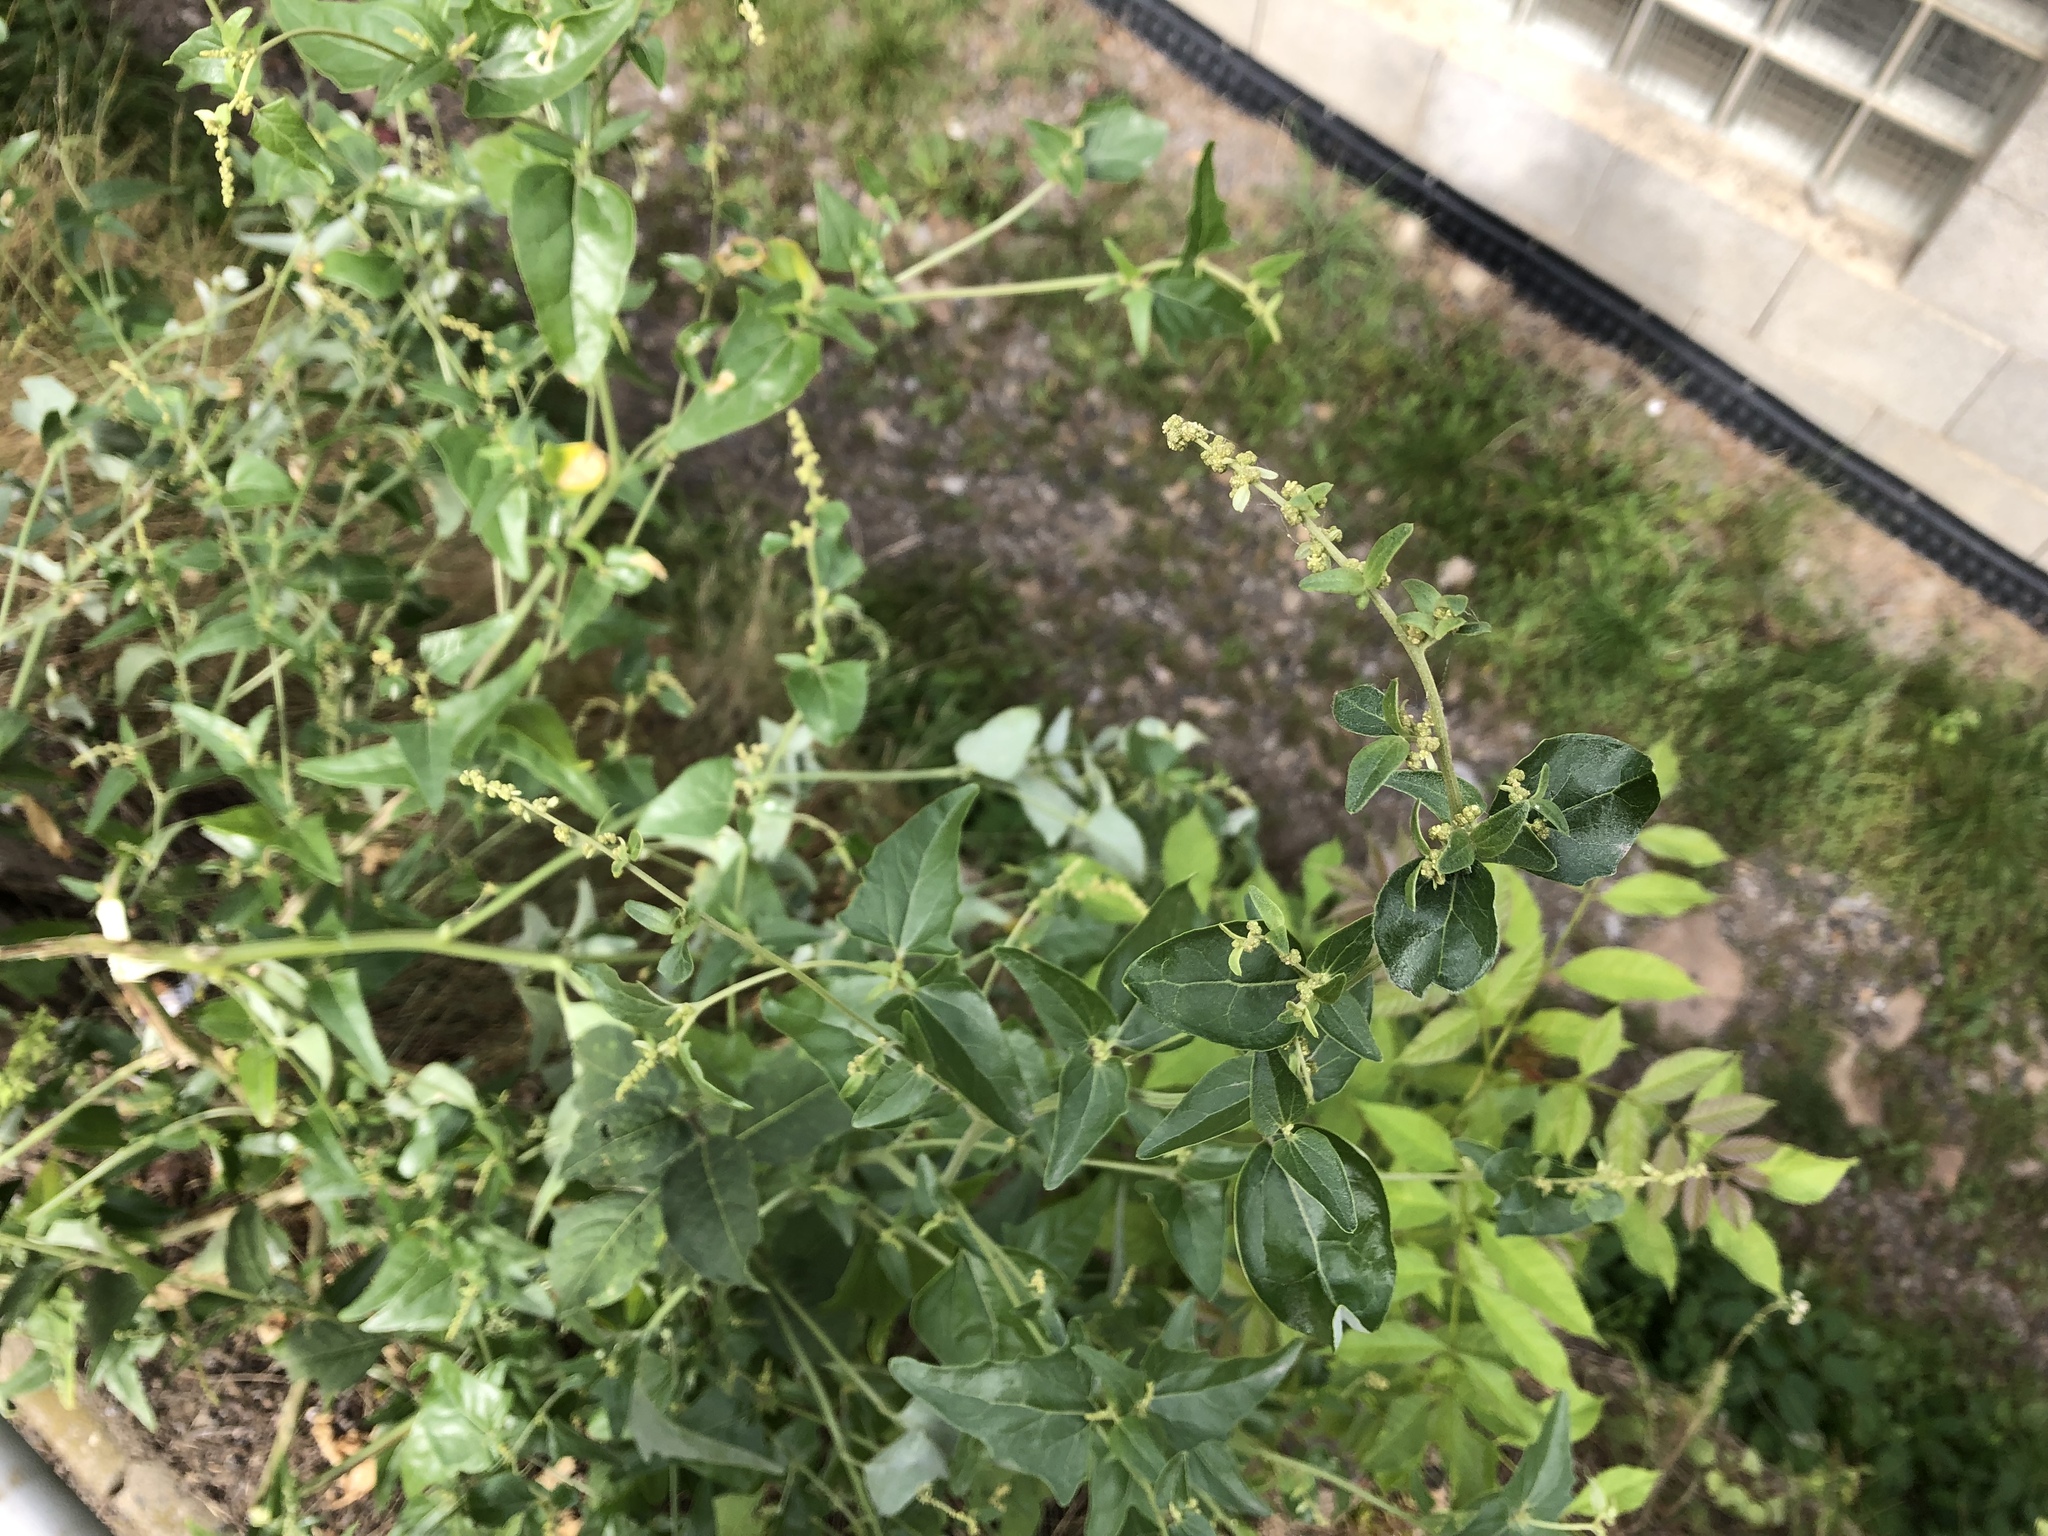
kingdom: Plantae
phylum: Tracheophyta
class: Magnoliopsida
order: Caryophyllales
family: Amaranthaceae
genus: Atriplex
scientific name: Atriplex sagittata
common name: Purple orache
